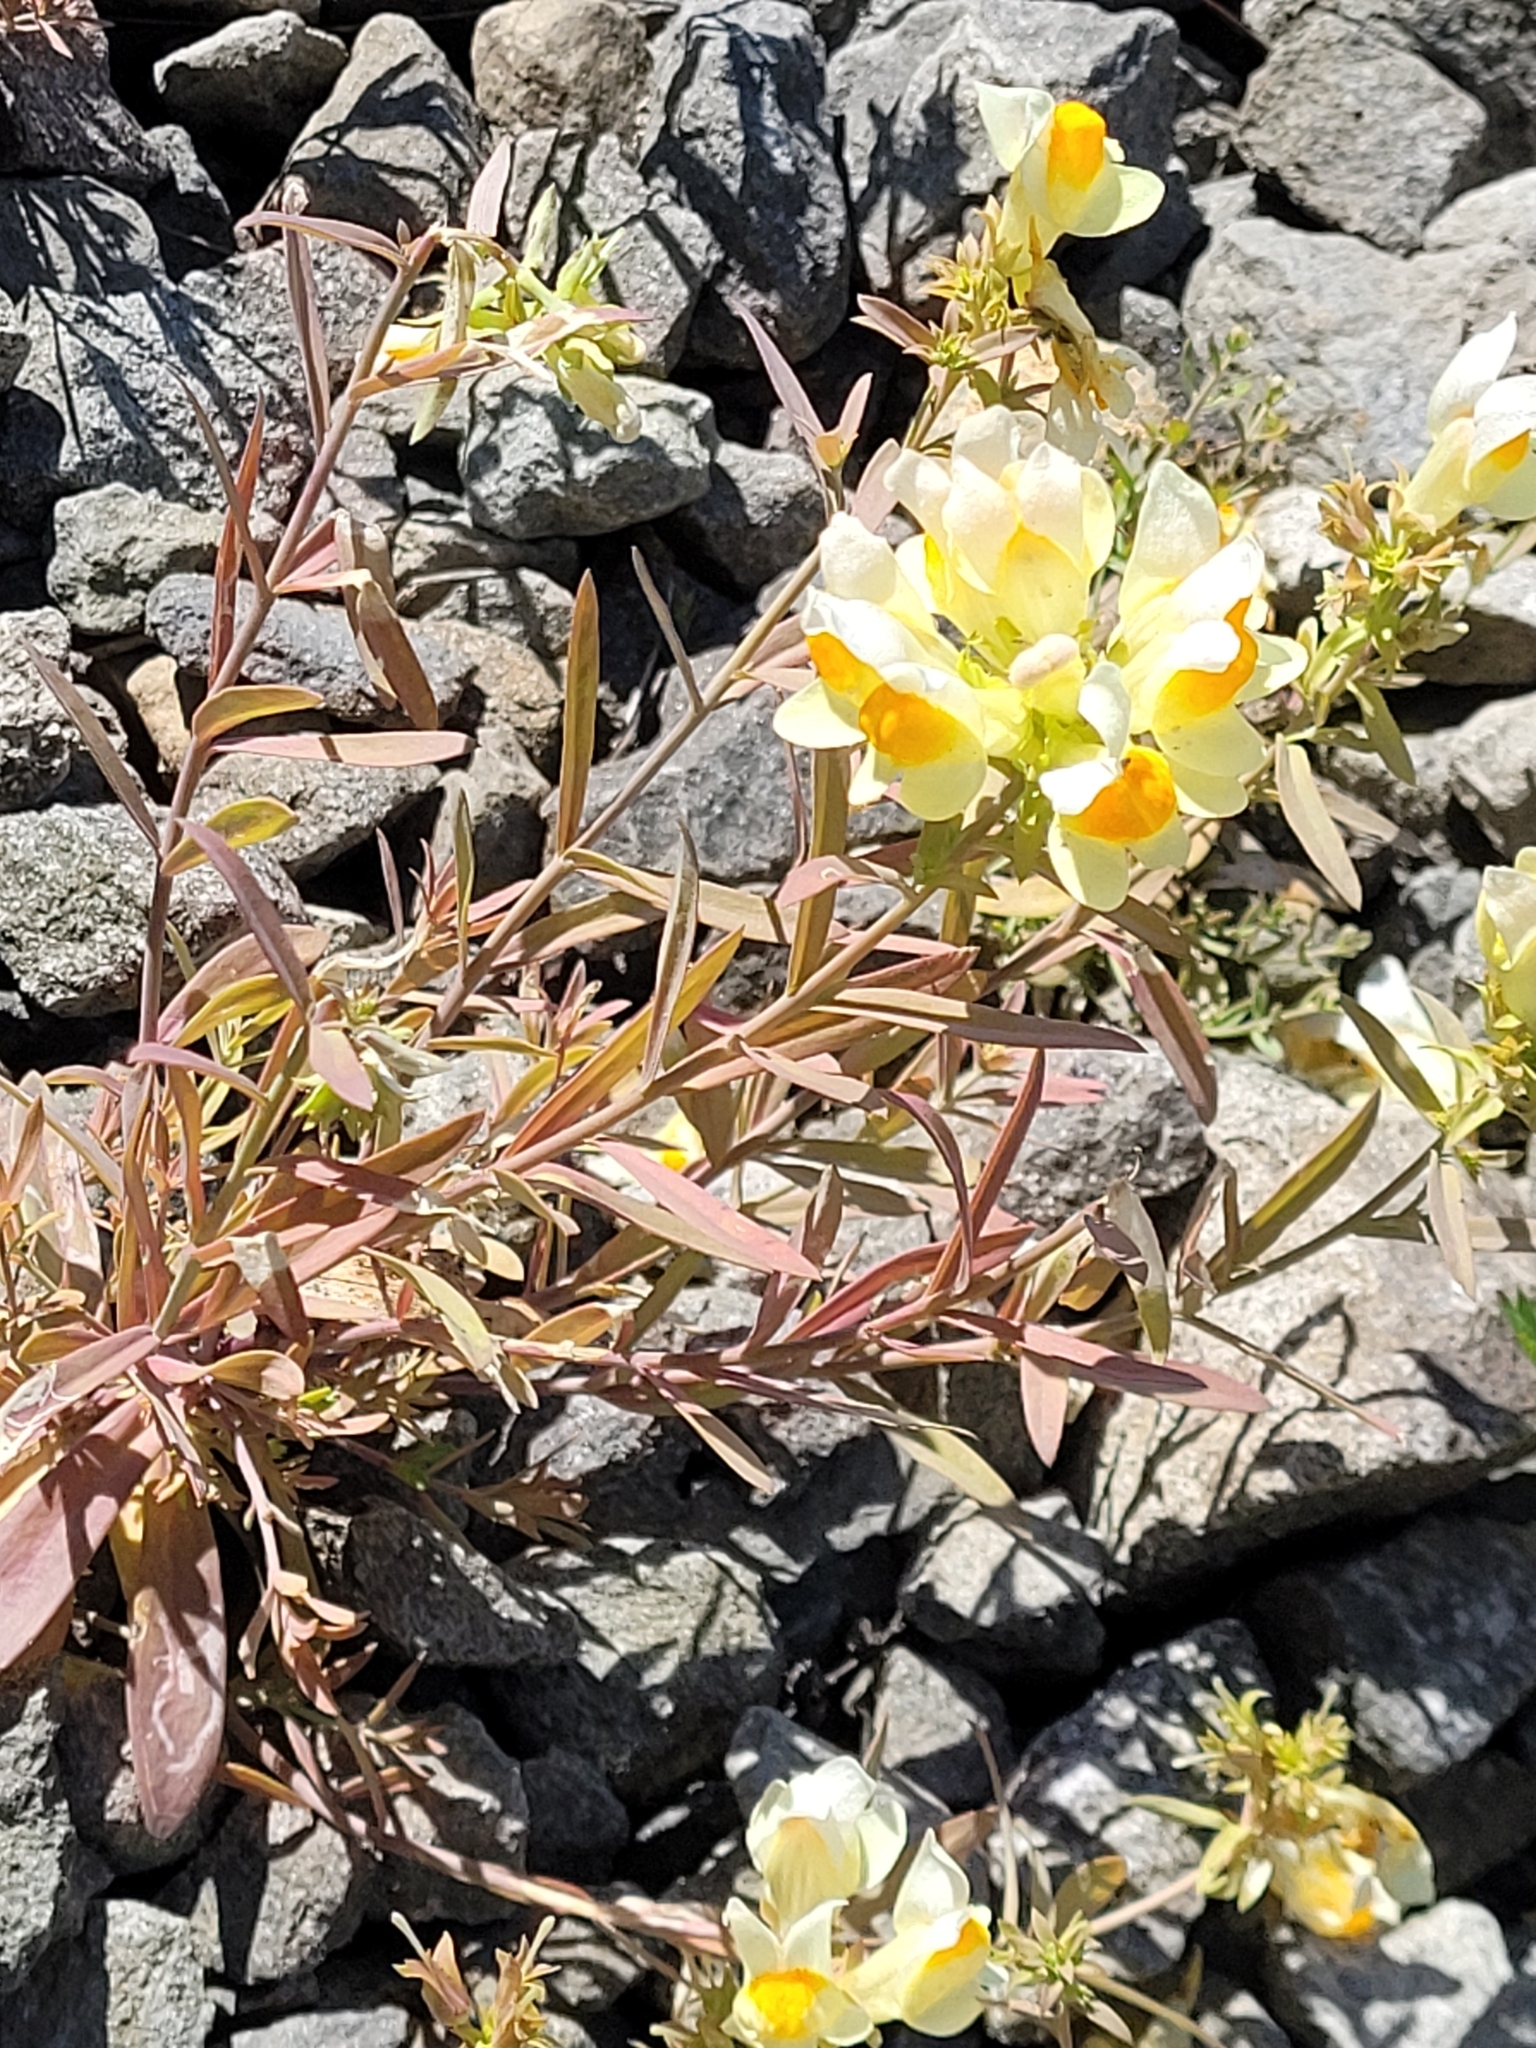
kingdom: Plantae
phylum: Tracheophyta
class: Magnoliopsida
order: Lamiales
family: Plantaginaceae
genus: Linaria
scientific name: Linaria japonica
